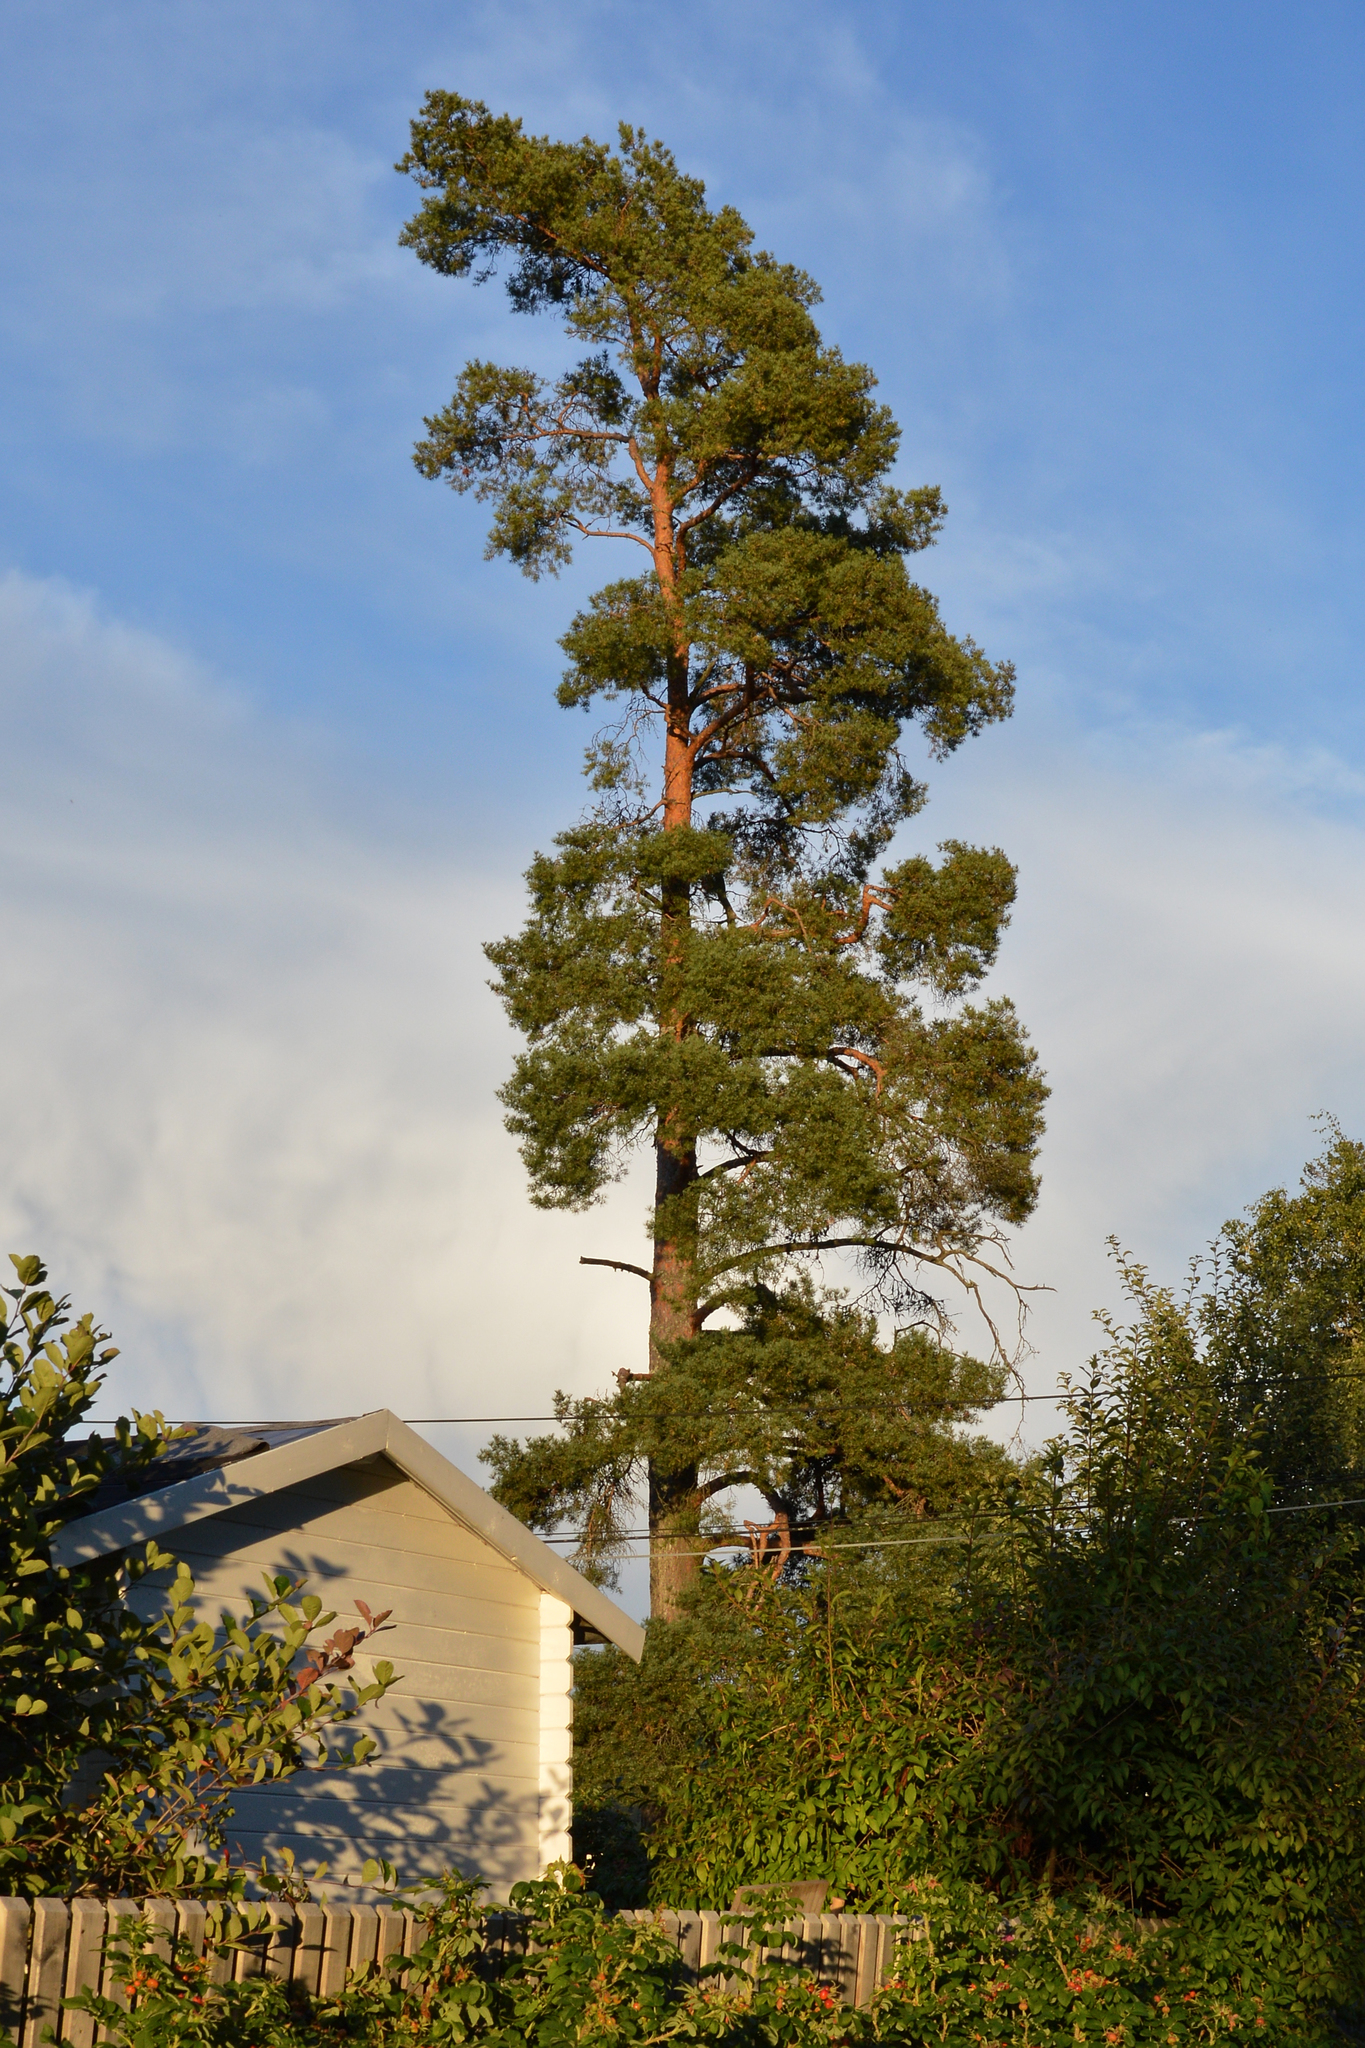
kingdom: Plantae
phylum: Tracheophyta
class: Pinopsida
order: Pinales
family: Pinaceae
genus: Pinus
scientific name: Pinus sylvestris
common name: Scots pine
